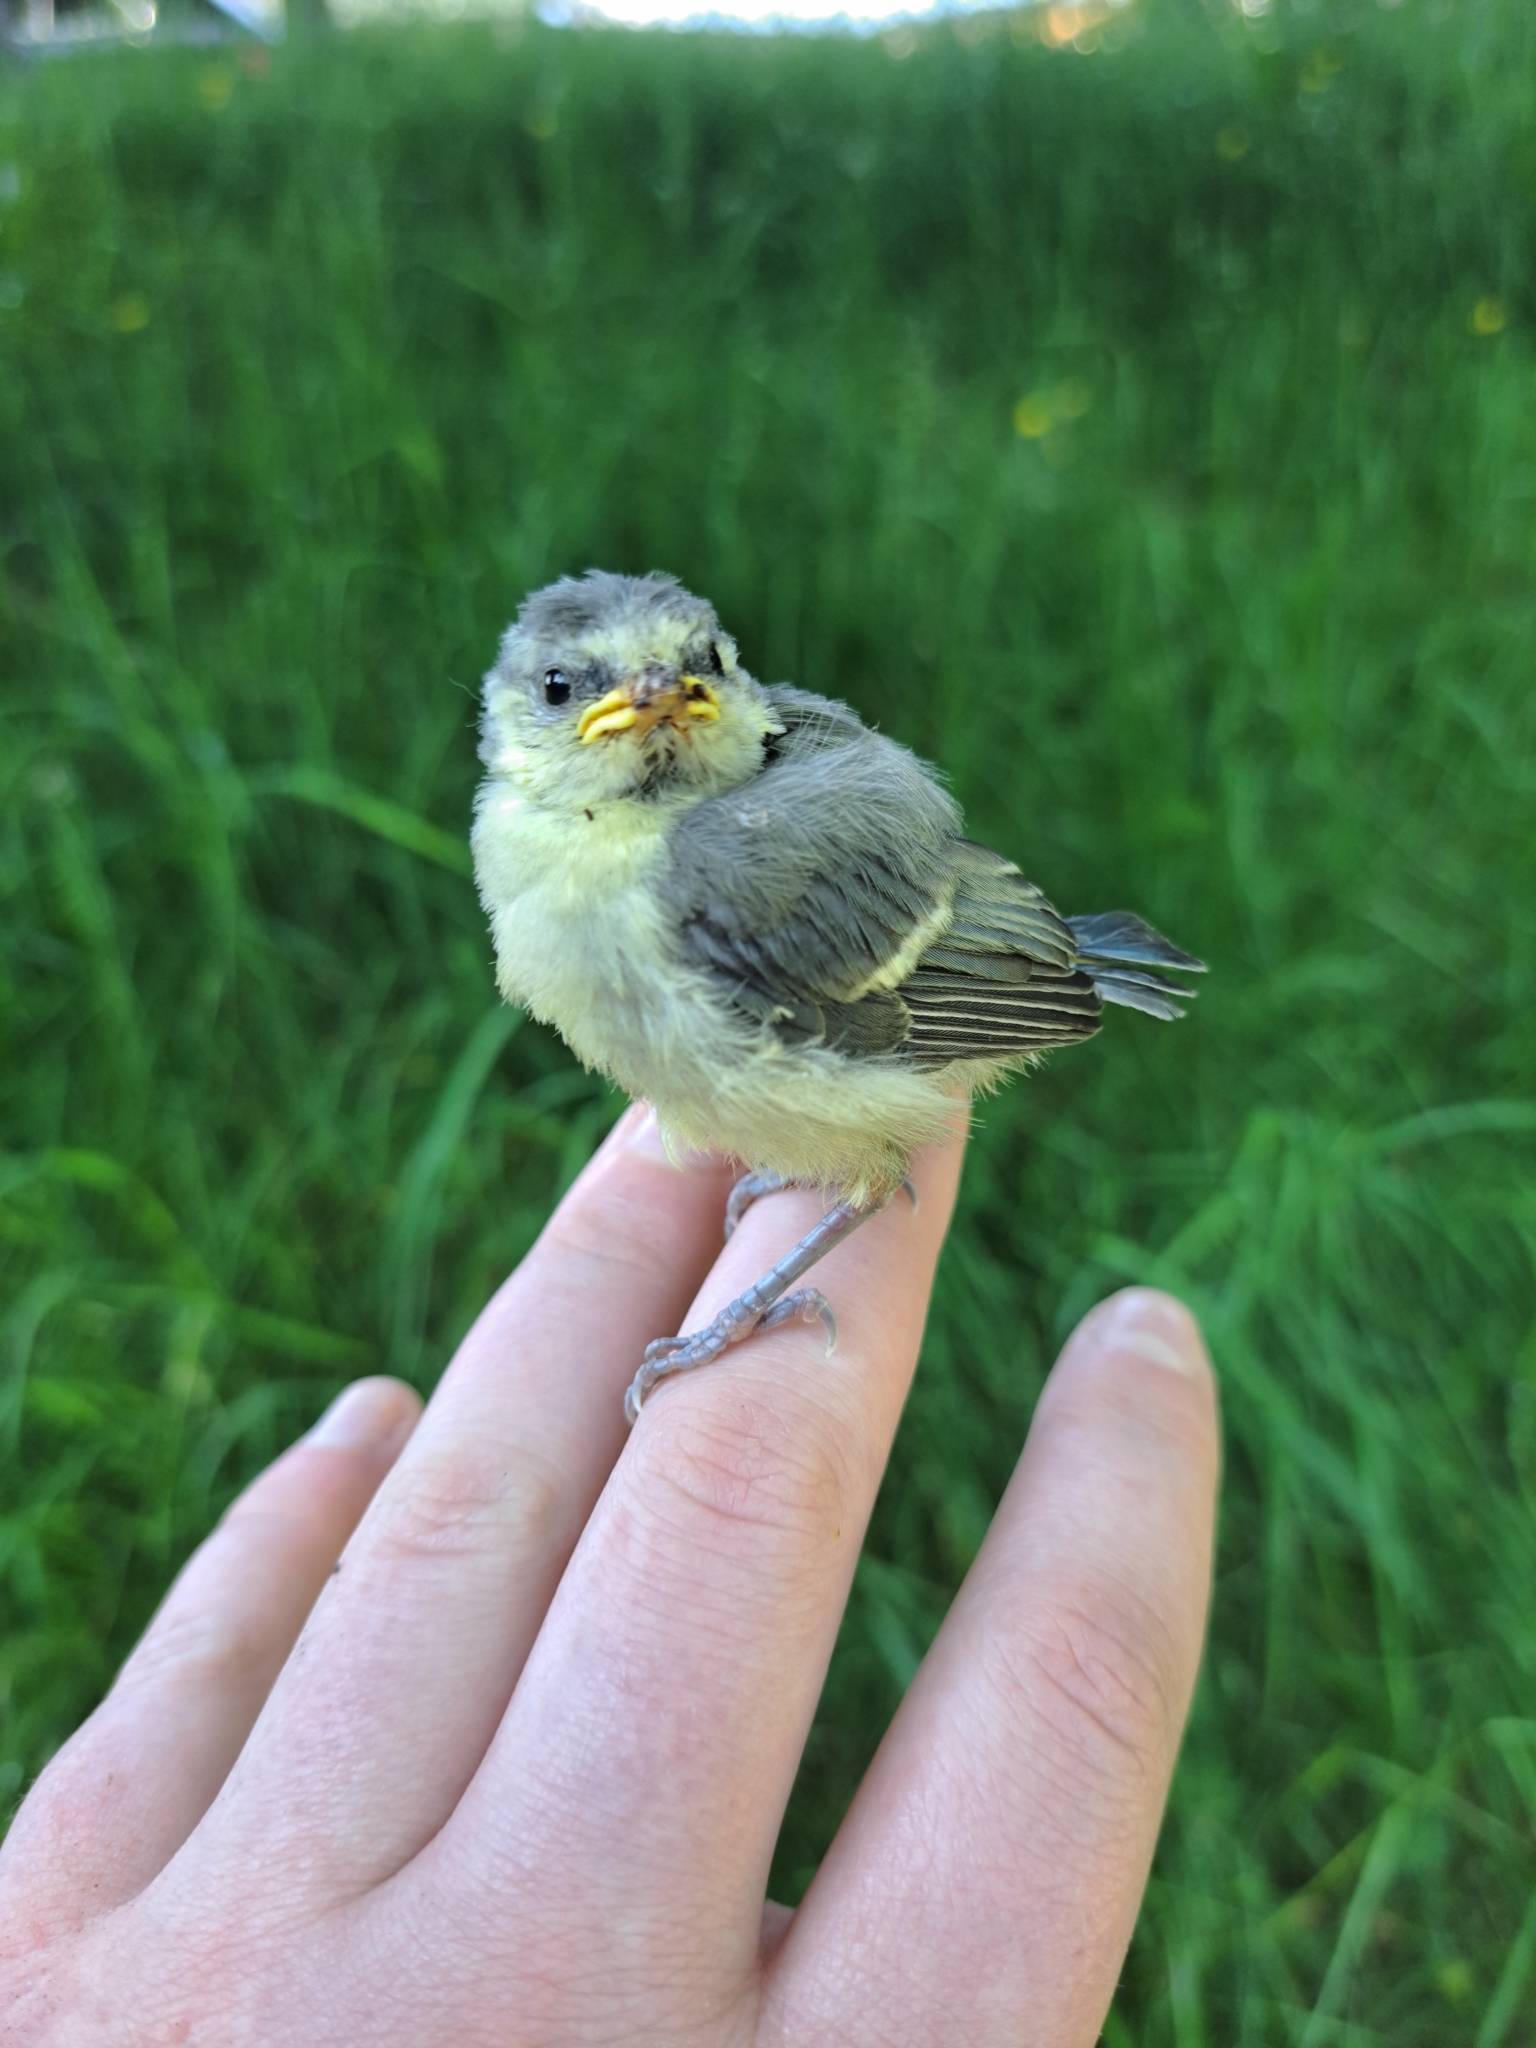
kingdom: Animalia
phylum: Chordata
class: Aves
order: Passeriformes
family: Paridae
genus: Cyanistes
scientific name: Cyanistes caeruleus
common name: Eurasian blue tit
